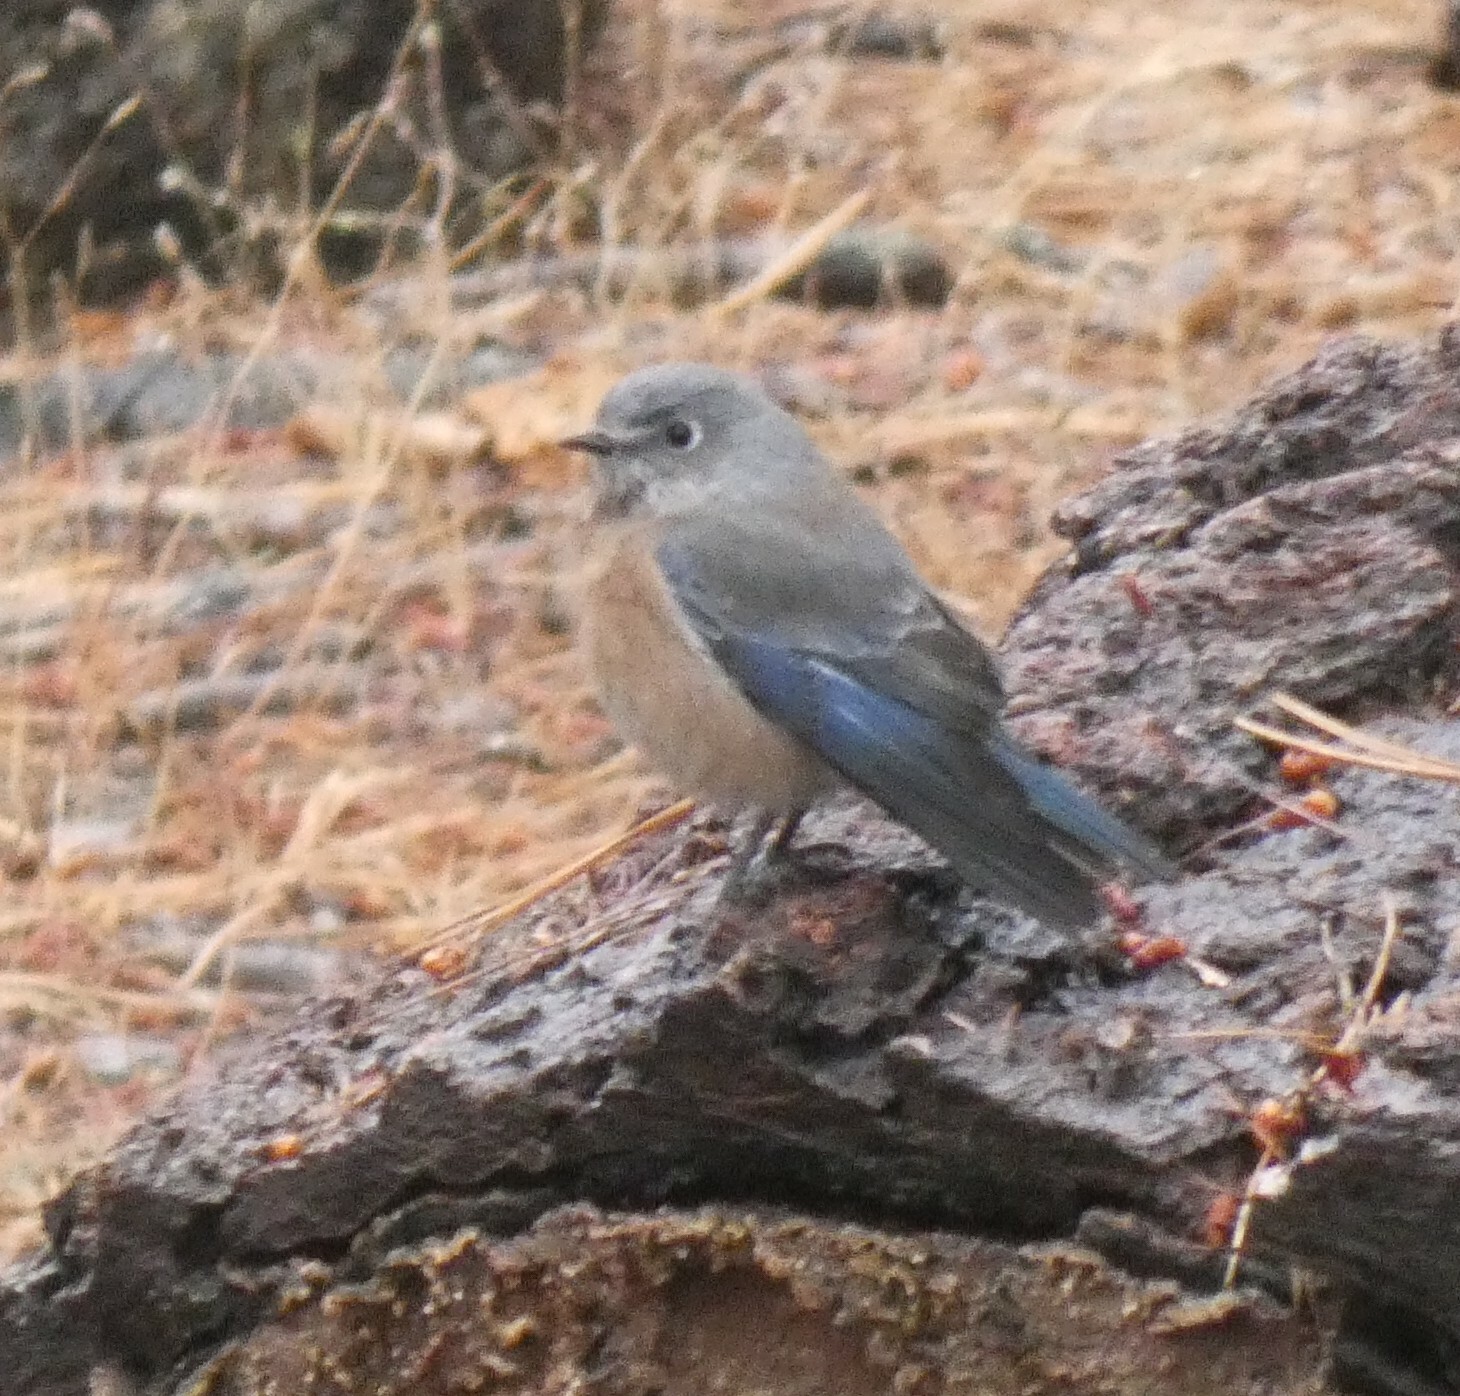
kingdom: Animalia
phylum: Chordata
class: Aves
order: Passeriformes
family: Turdidae
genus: Sialia
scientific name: Sialia mexicana
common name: Western bluebird
